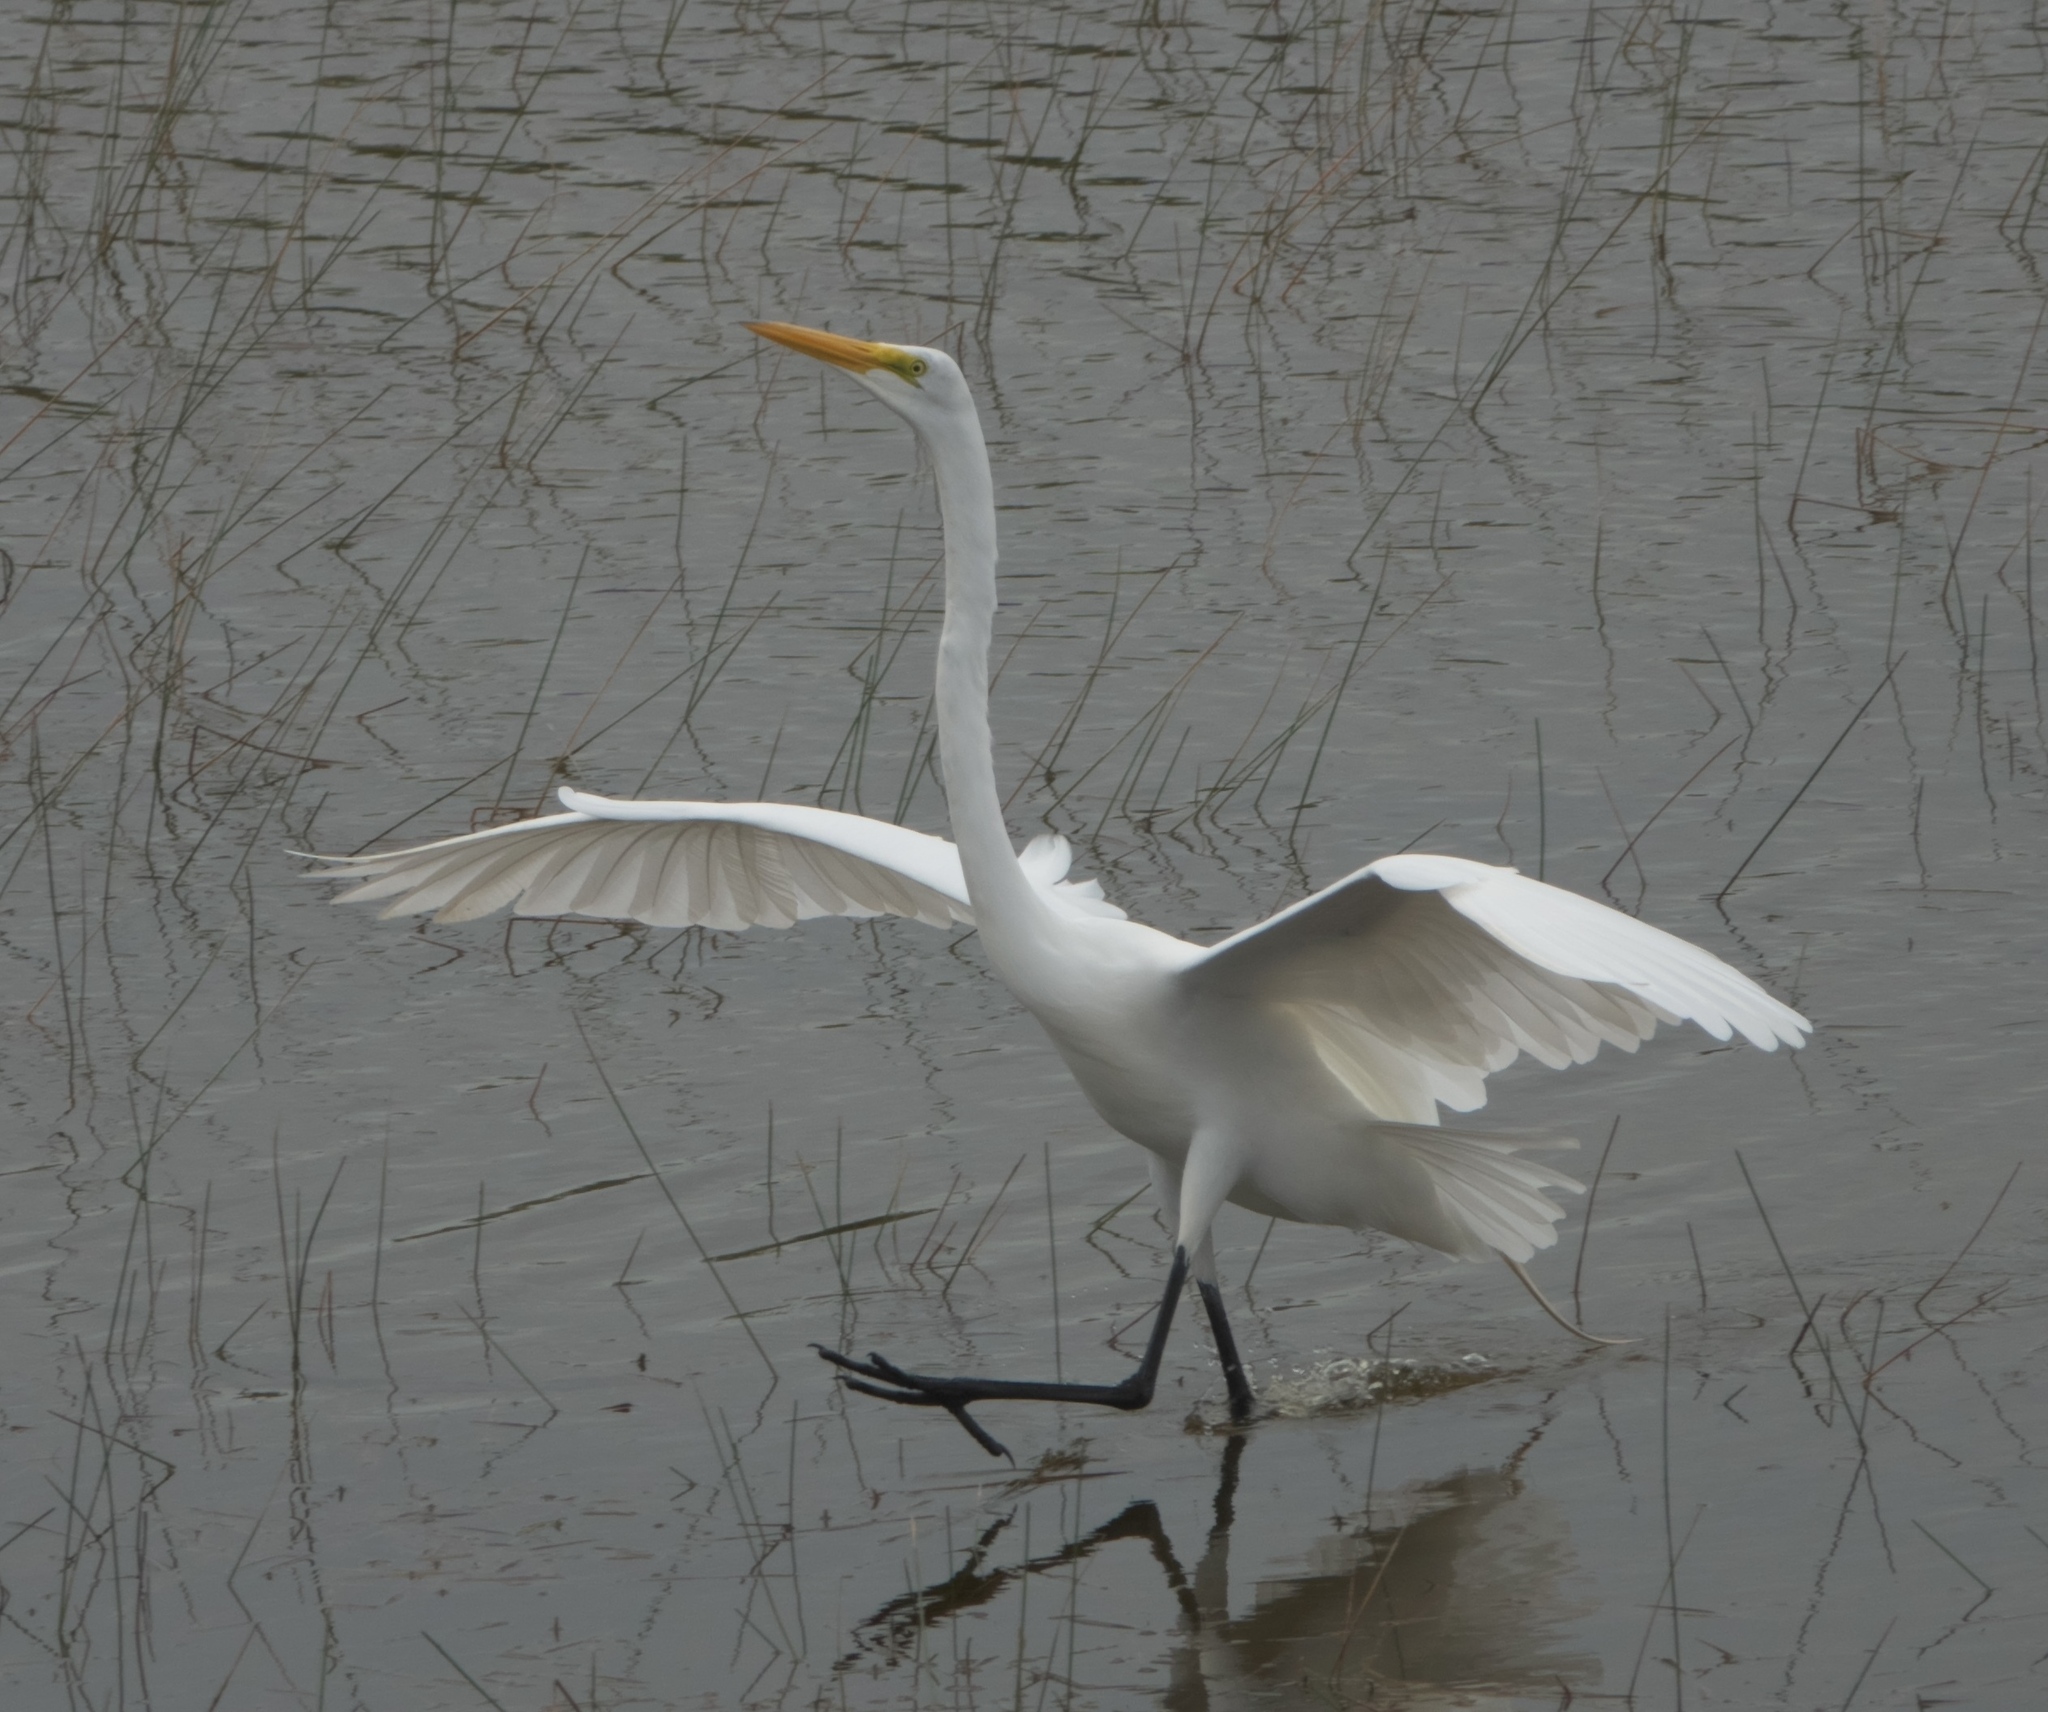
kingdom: Animalia
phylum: Chordata
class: Aves
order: Pelecaniformes
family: Ardeidae
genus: Ardea
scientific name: Ardea alba
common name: Great egret
